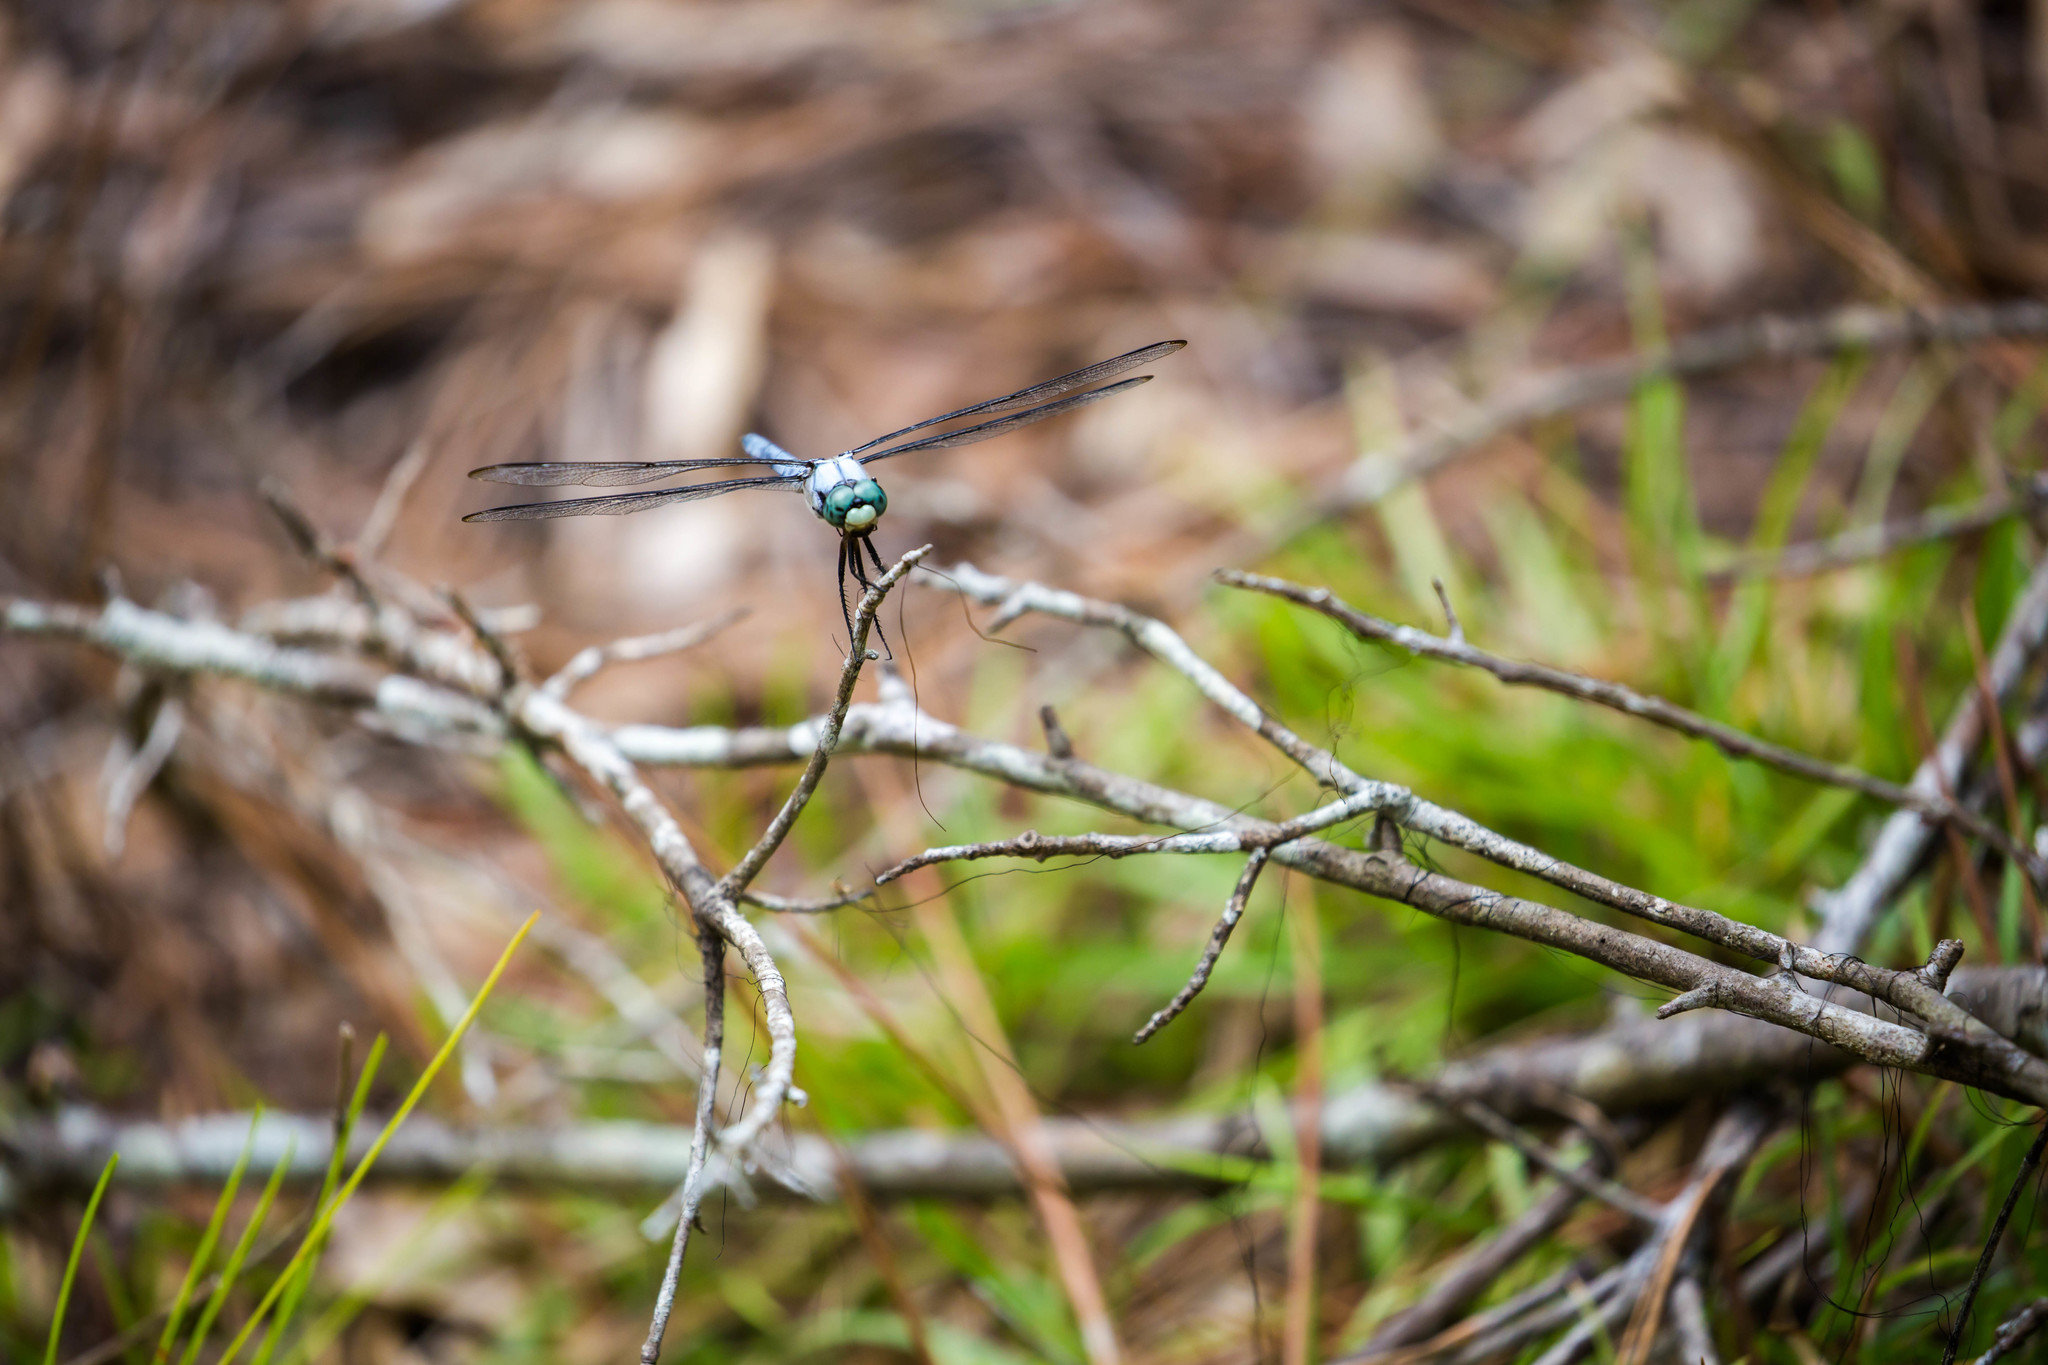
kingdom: Animalia
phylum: Arthropoda
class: Insecta
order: Odonata
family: Libellulidae
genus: Libellula
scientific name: Libellula vibrans
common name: Great blue skimmer
